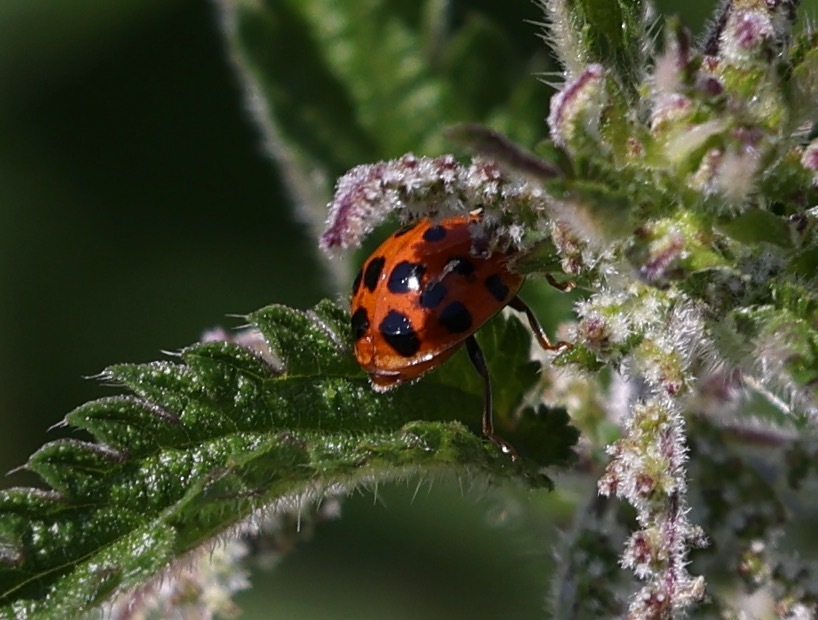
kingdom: Animalia
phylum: Arthropoda
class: Insecta
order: Coleoptera
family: Coccinellidae
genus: Harmonia
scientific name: Harmonia axyridis
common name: Harlequin ladybird
